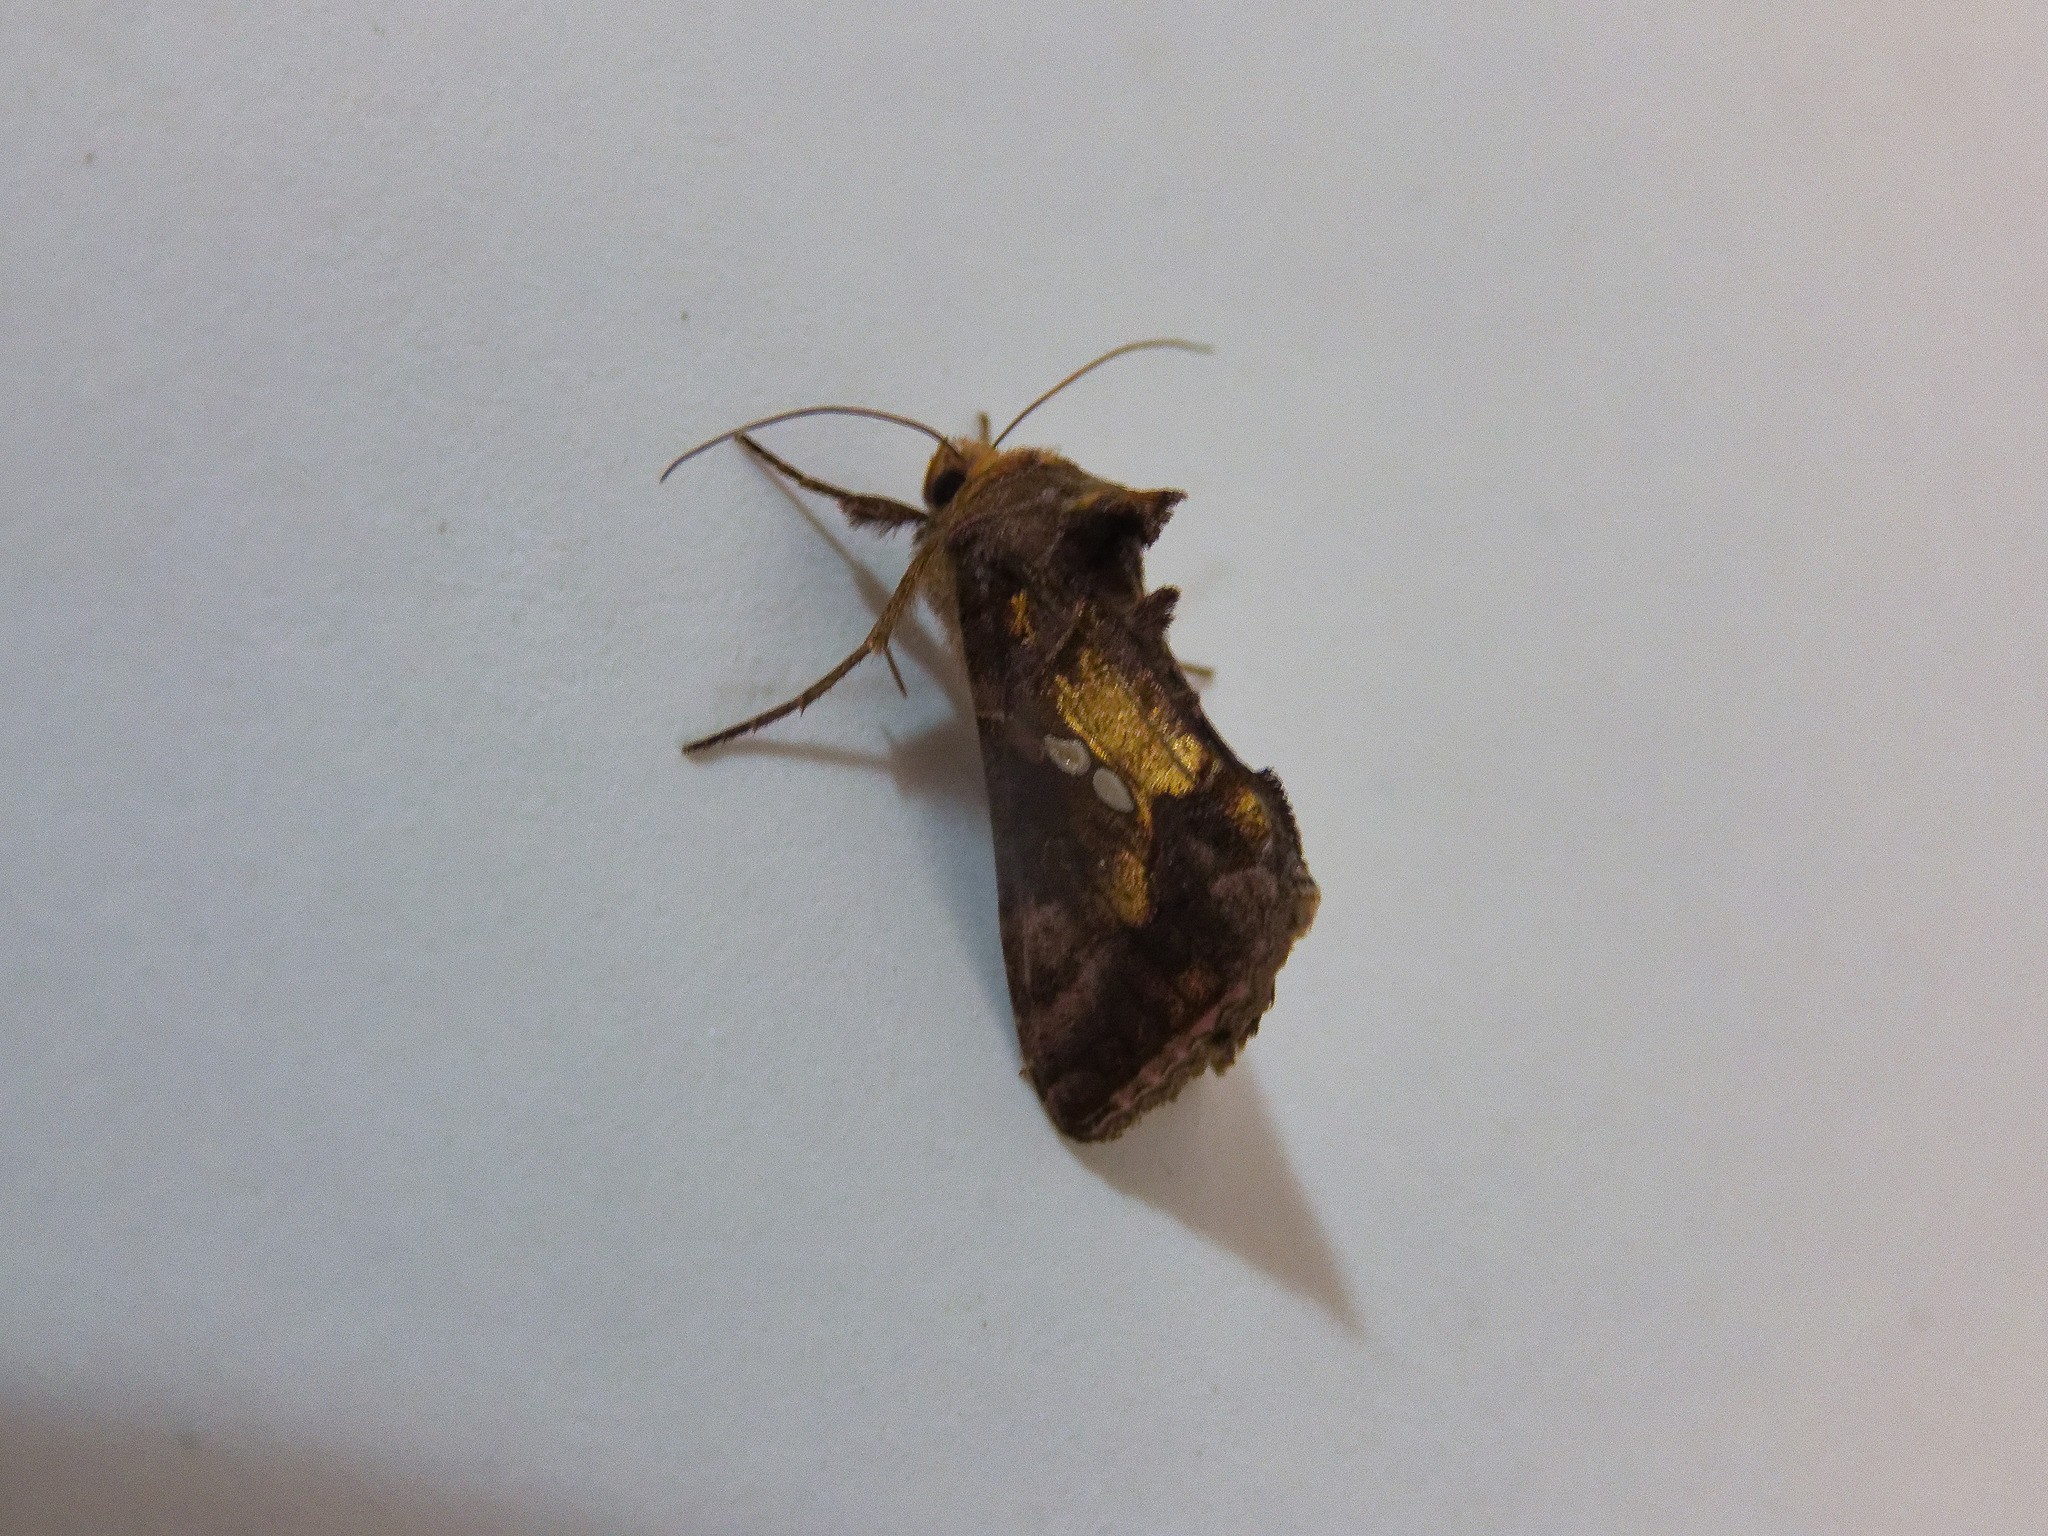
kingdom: Animalia
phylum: Arthropoda
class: Insecta
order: Lepidoptera
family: Noctuidae
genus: Chrysodeixis
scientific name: Chrysodeixis chalcites
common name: Golden twin-spot
